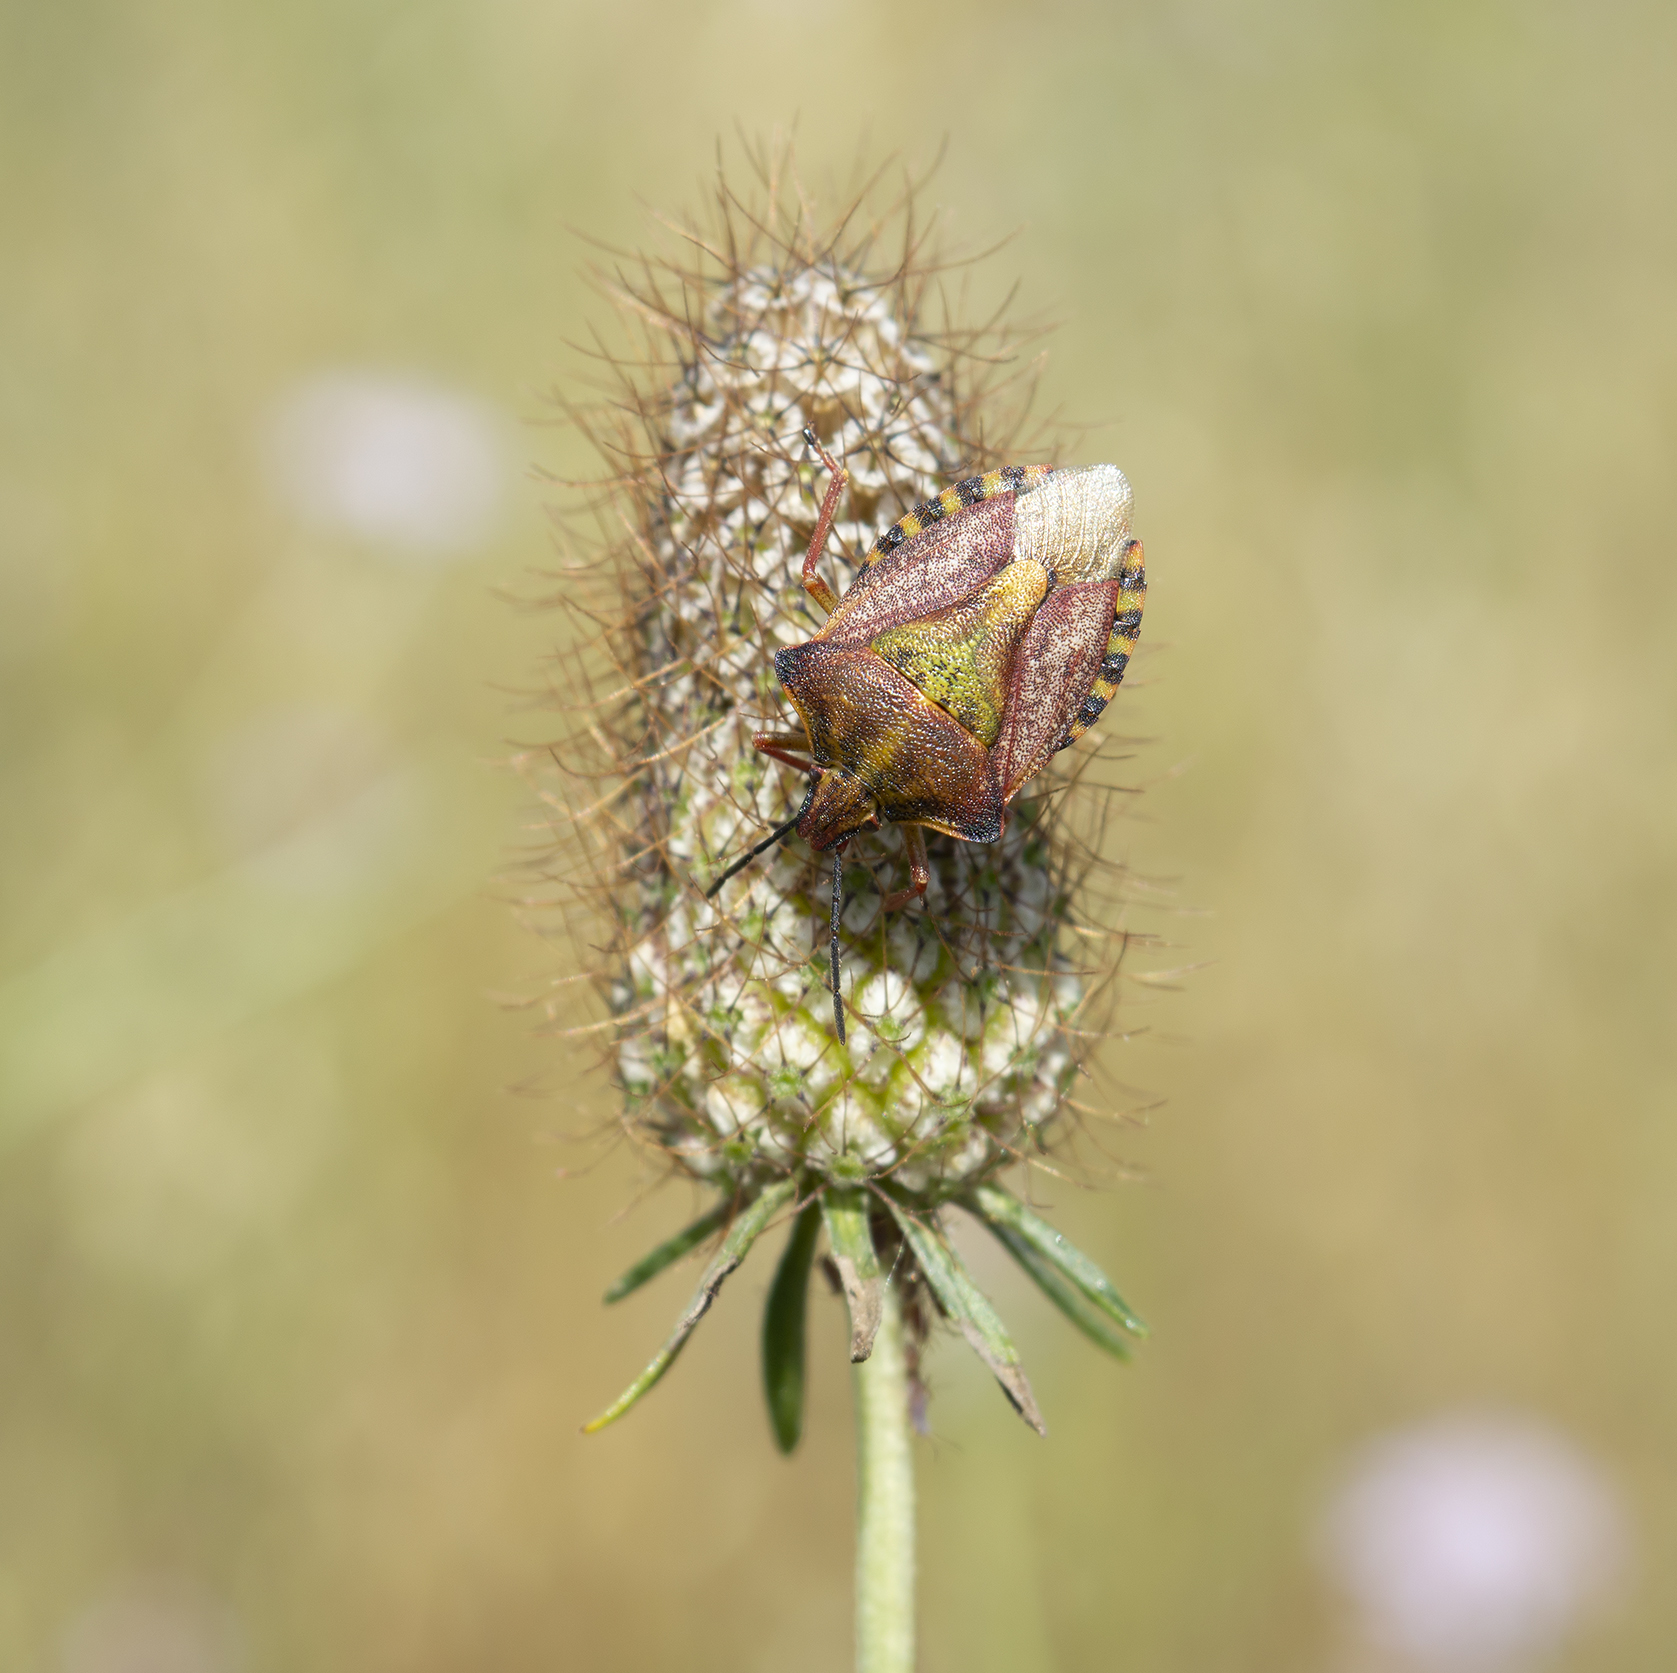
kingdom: Animalia
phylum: Arthropoda
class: Insecta
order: Hemiptera
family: Pentatomidae
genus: Carpocoris
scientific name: Carpocoris mediterraneus
